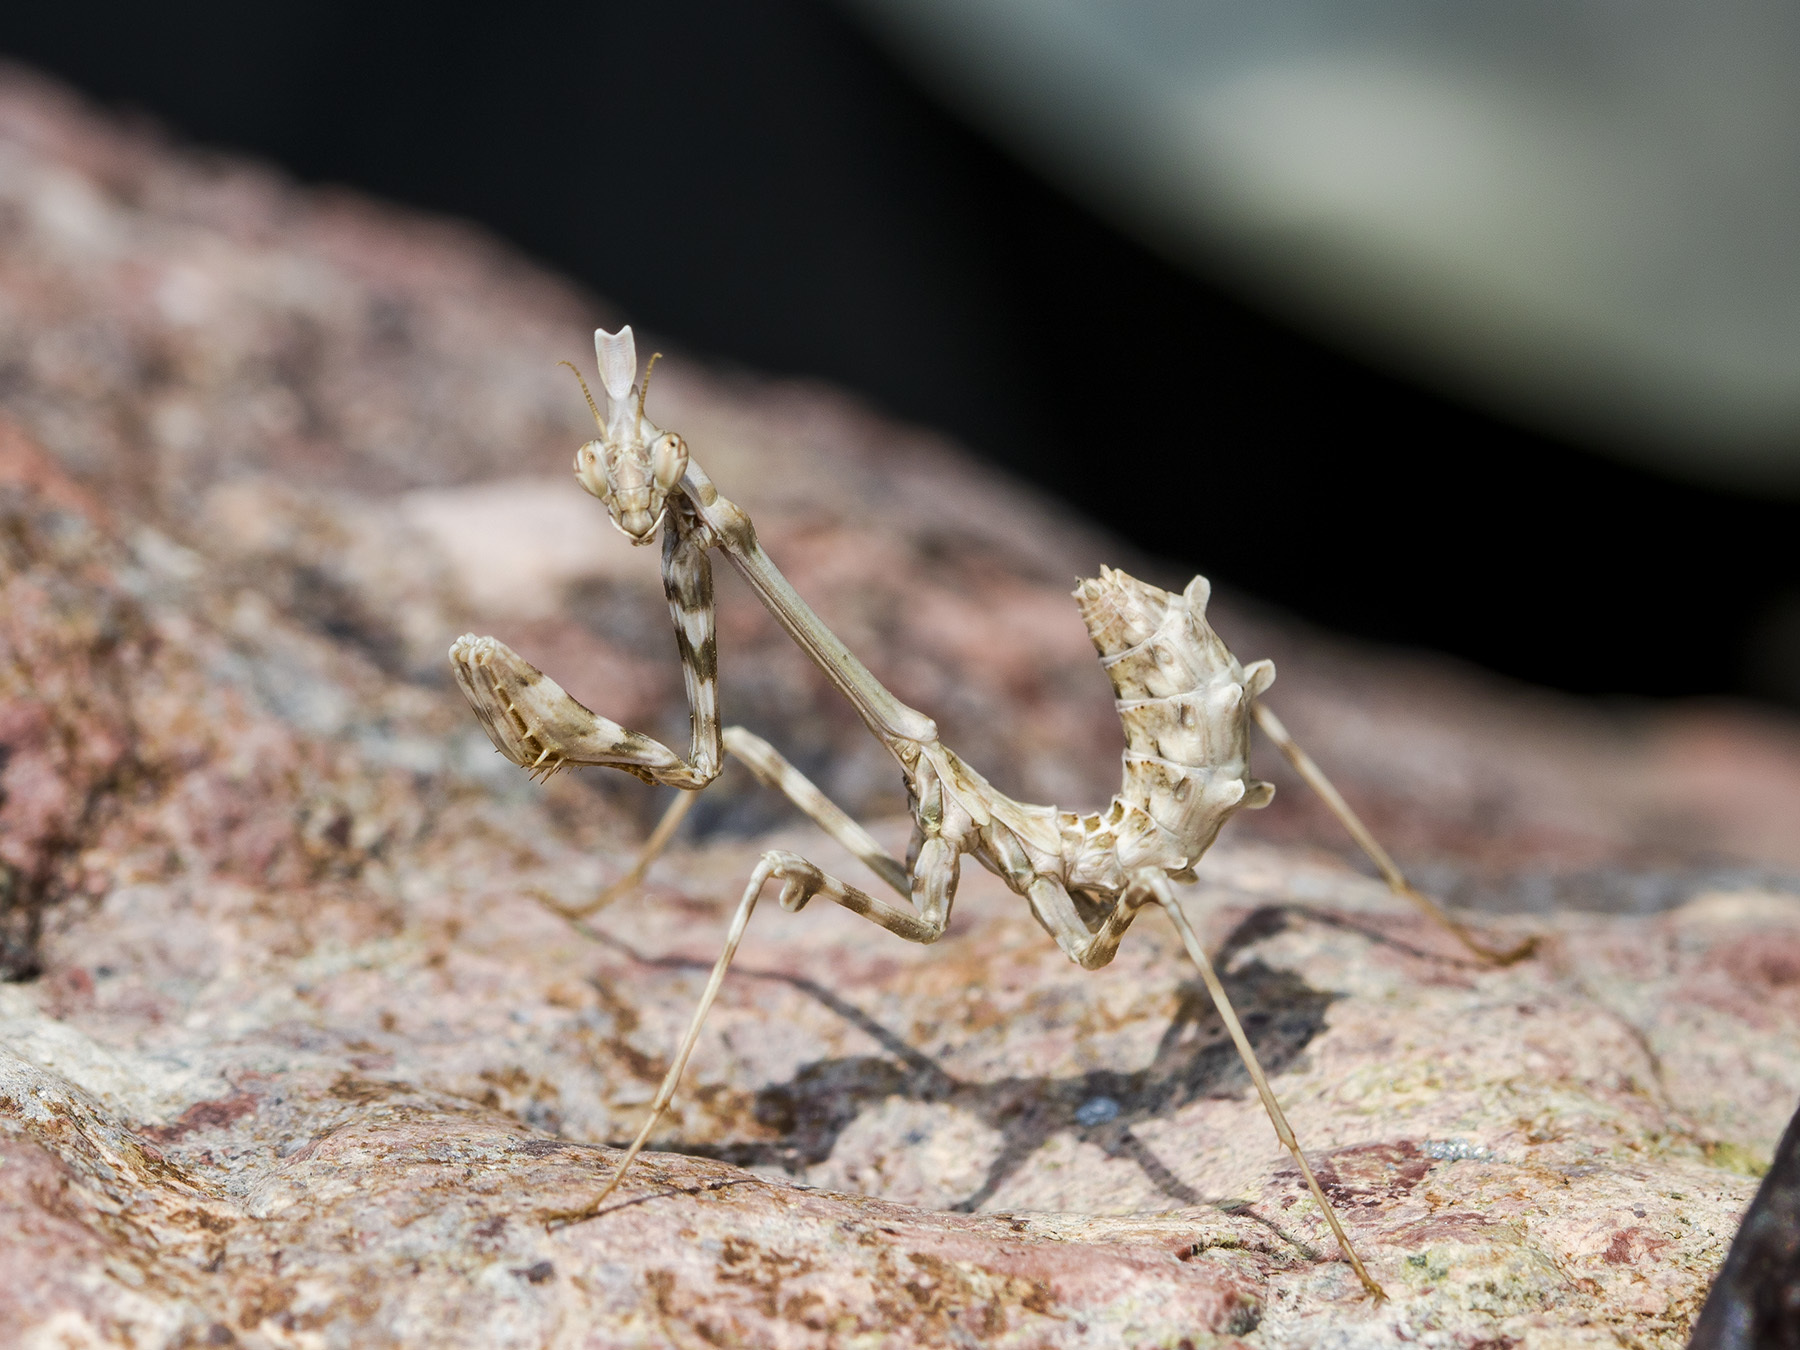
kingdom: Animalia
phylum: Arthropoda
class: Insecta
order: Mantodea
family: Empusidae
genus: Empusa
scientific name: Empusa pennicornis
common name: Conehead mantis
